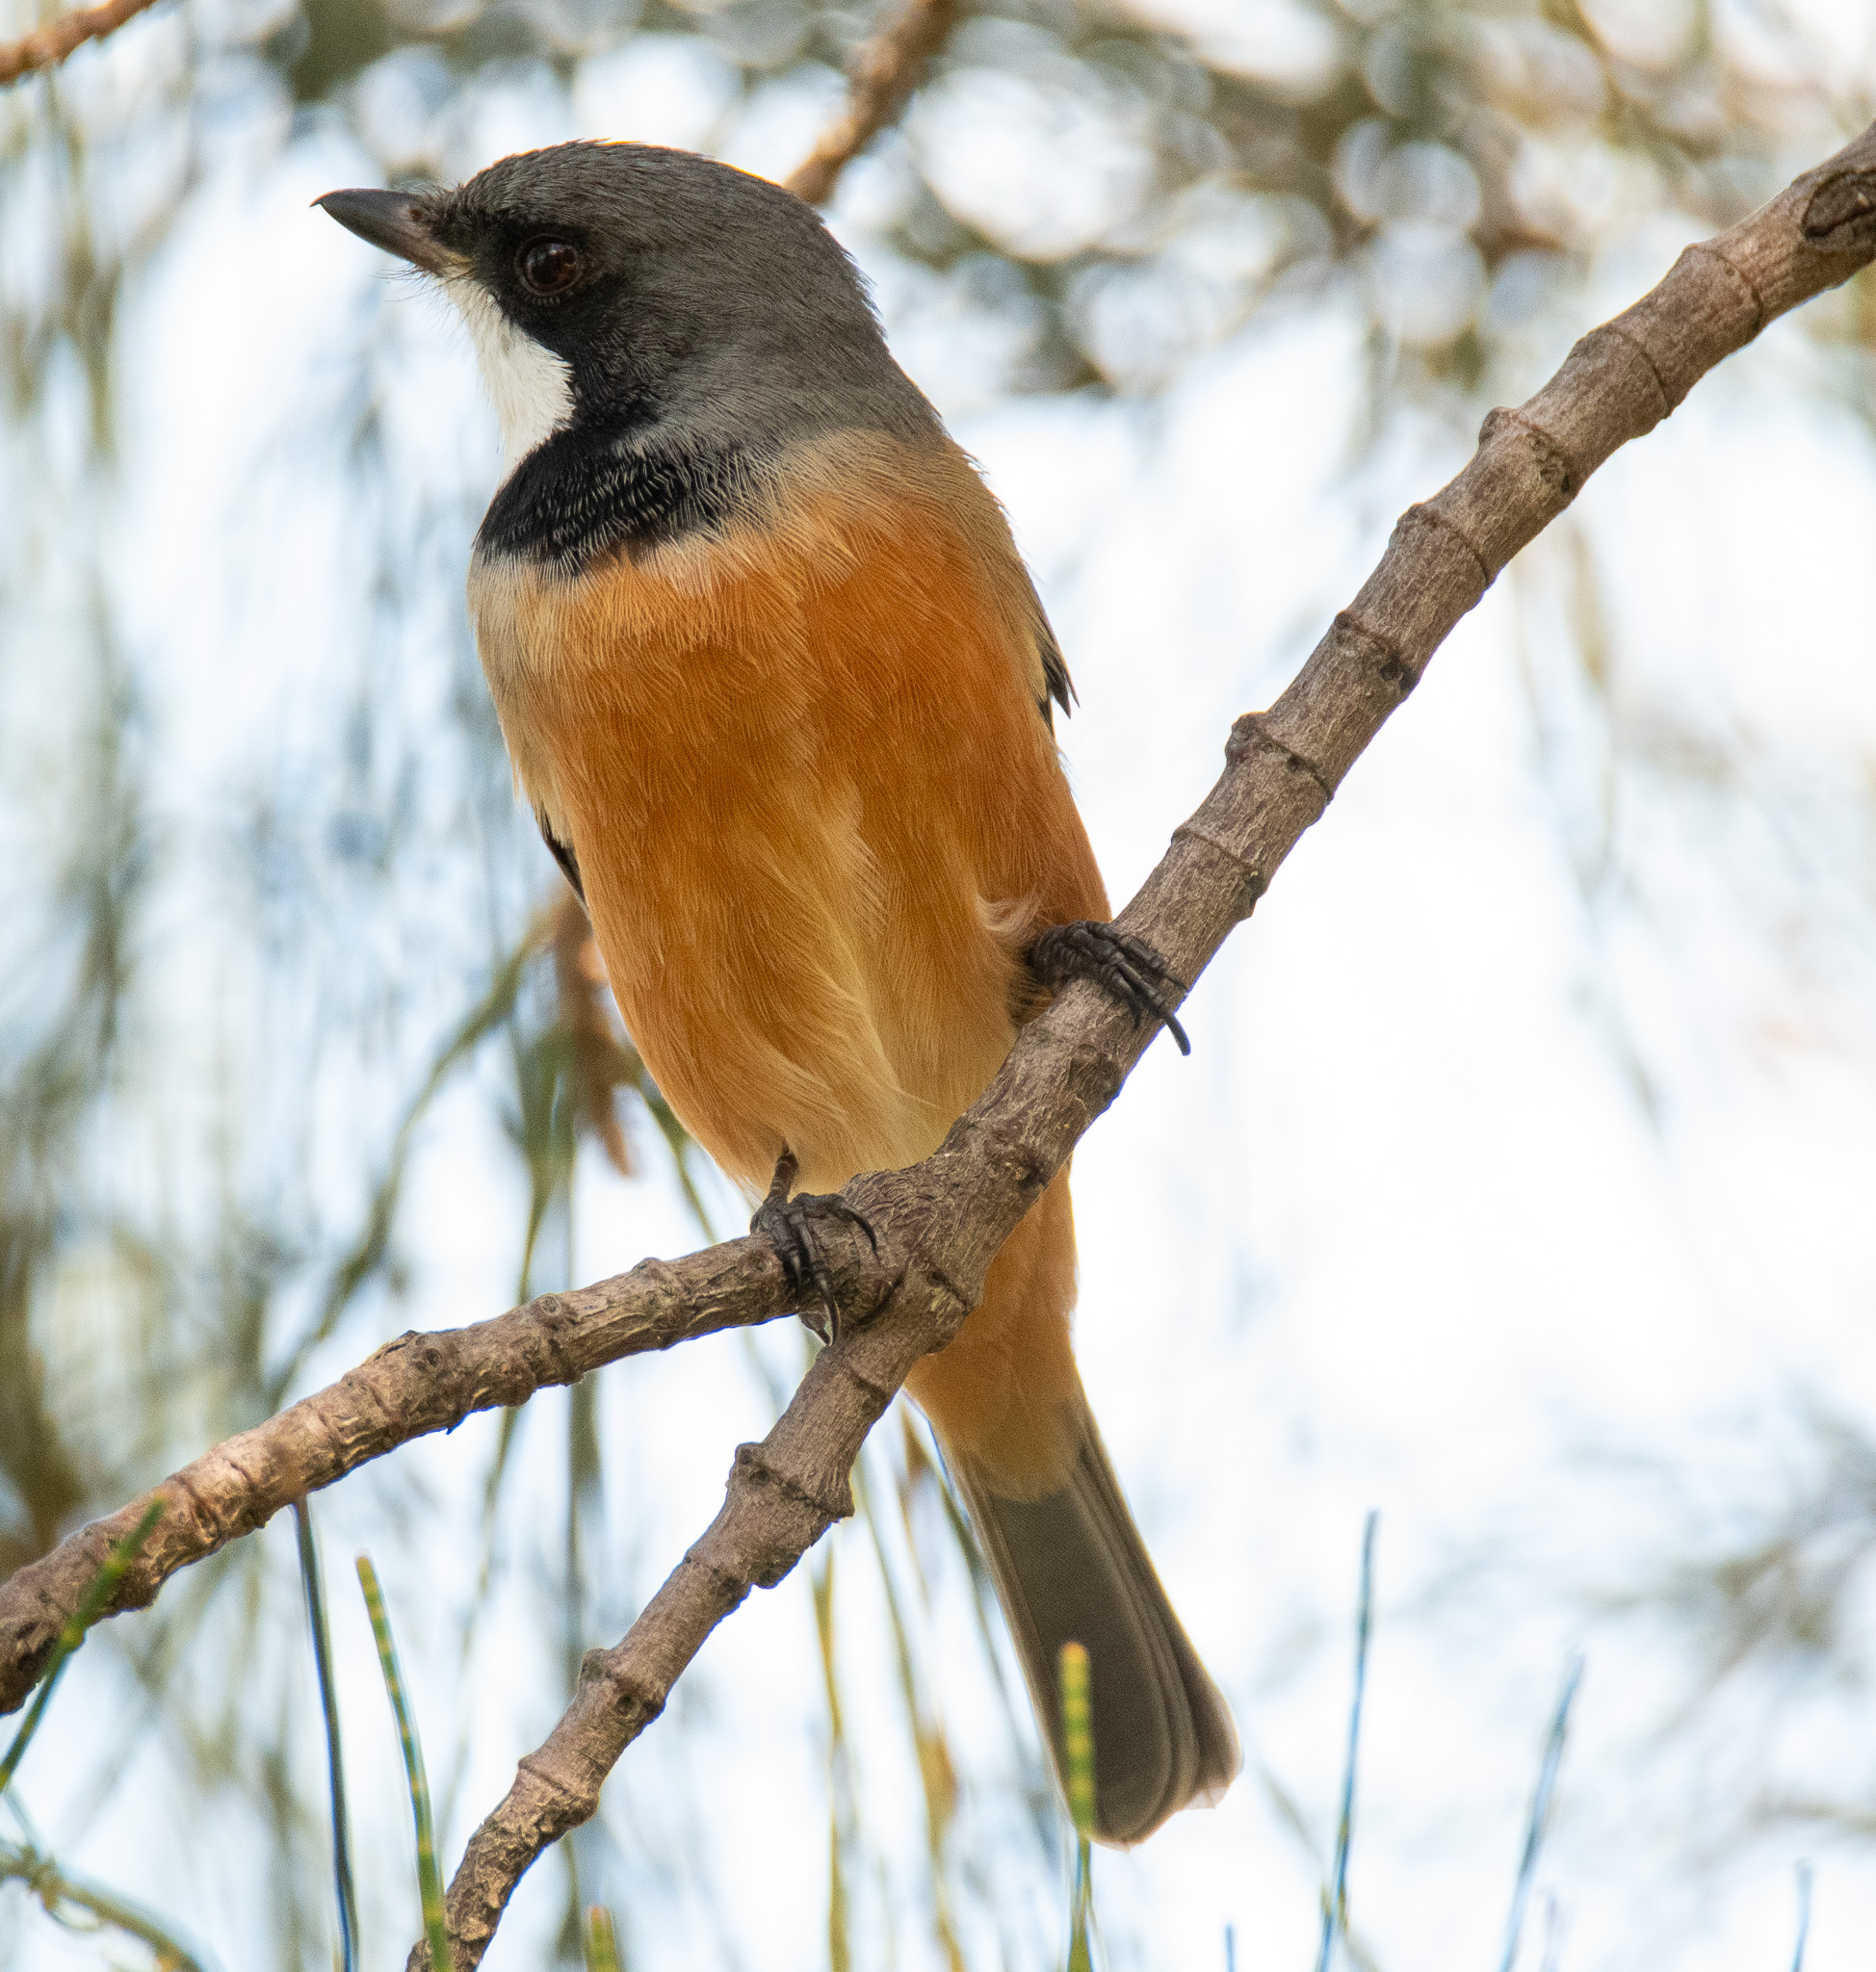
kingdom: Animalia
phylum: Chordata
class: Aves
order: Passeriformes
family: Pachycephalidae
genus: Pachycephala
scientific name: Pachycephala rufiventris
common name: Rufous whistler
